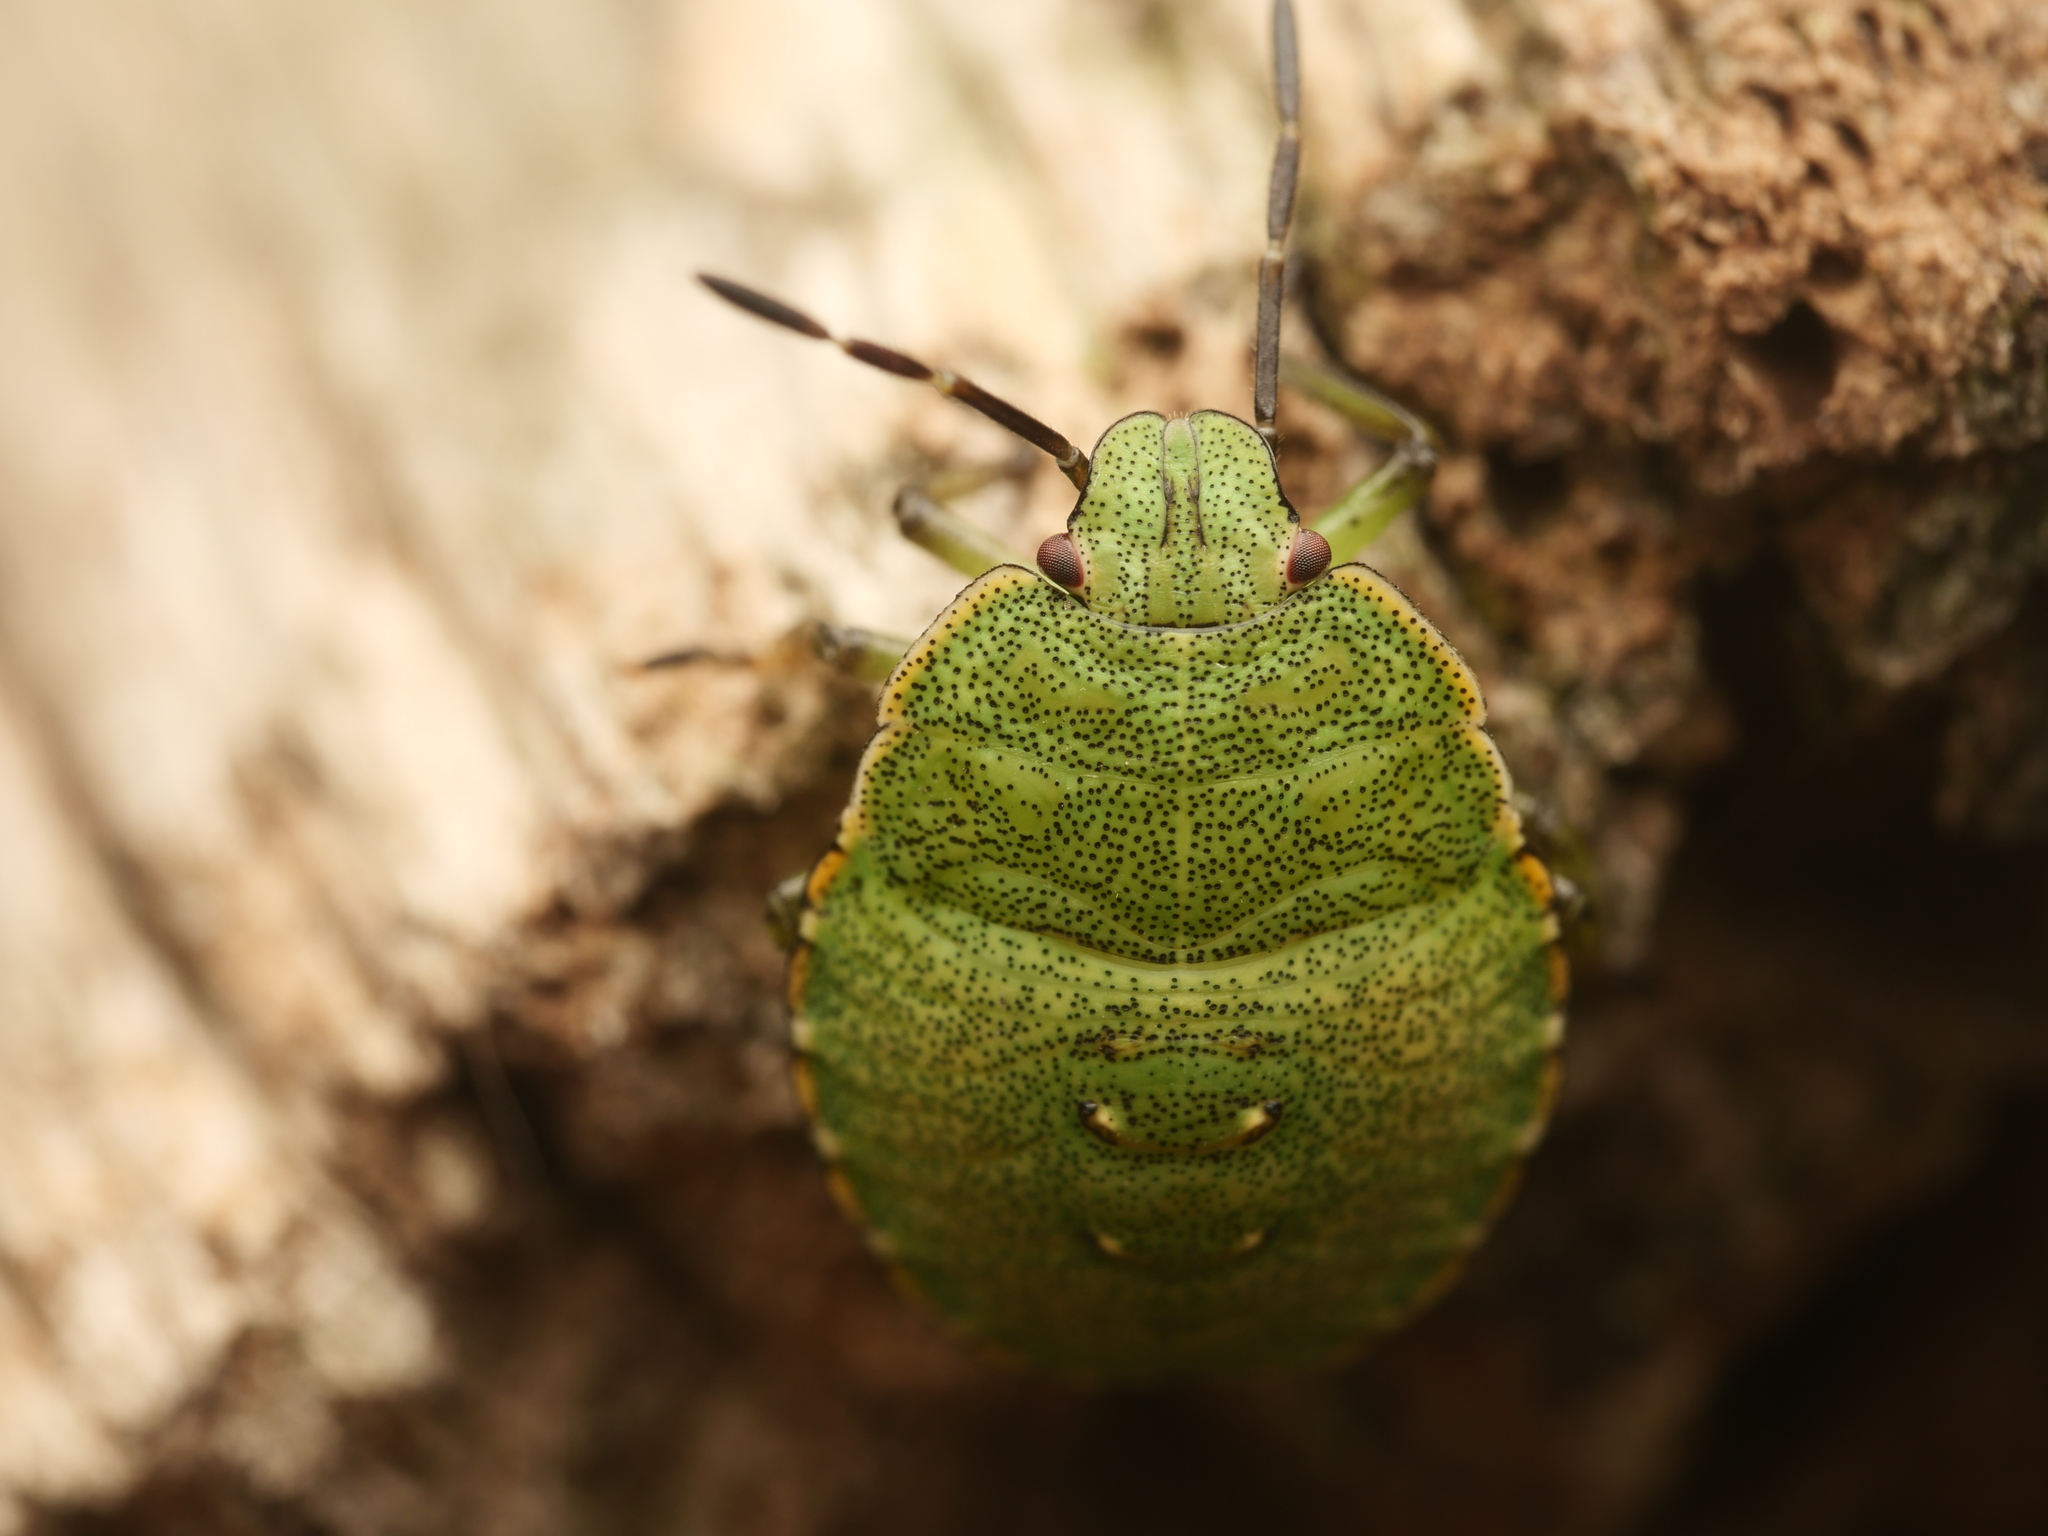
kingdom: Animalia
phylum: Arthropoda
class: Insecta
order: Hemiptera
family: Pentatomidae
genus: Palomena
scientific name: Palomena prasina
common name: Green shieldbug
